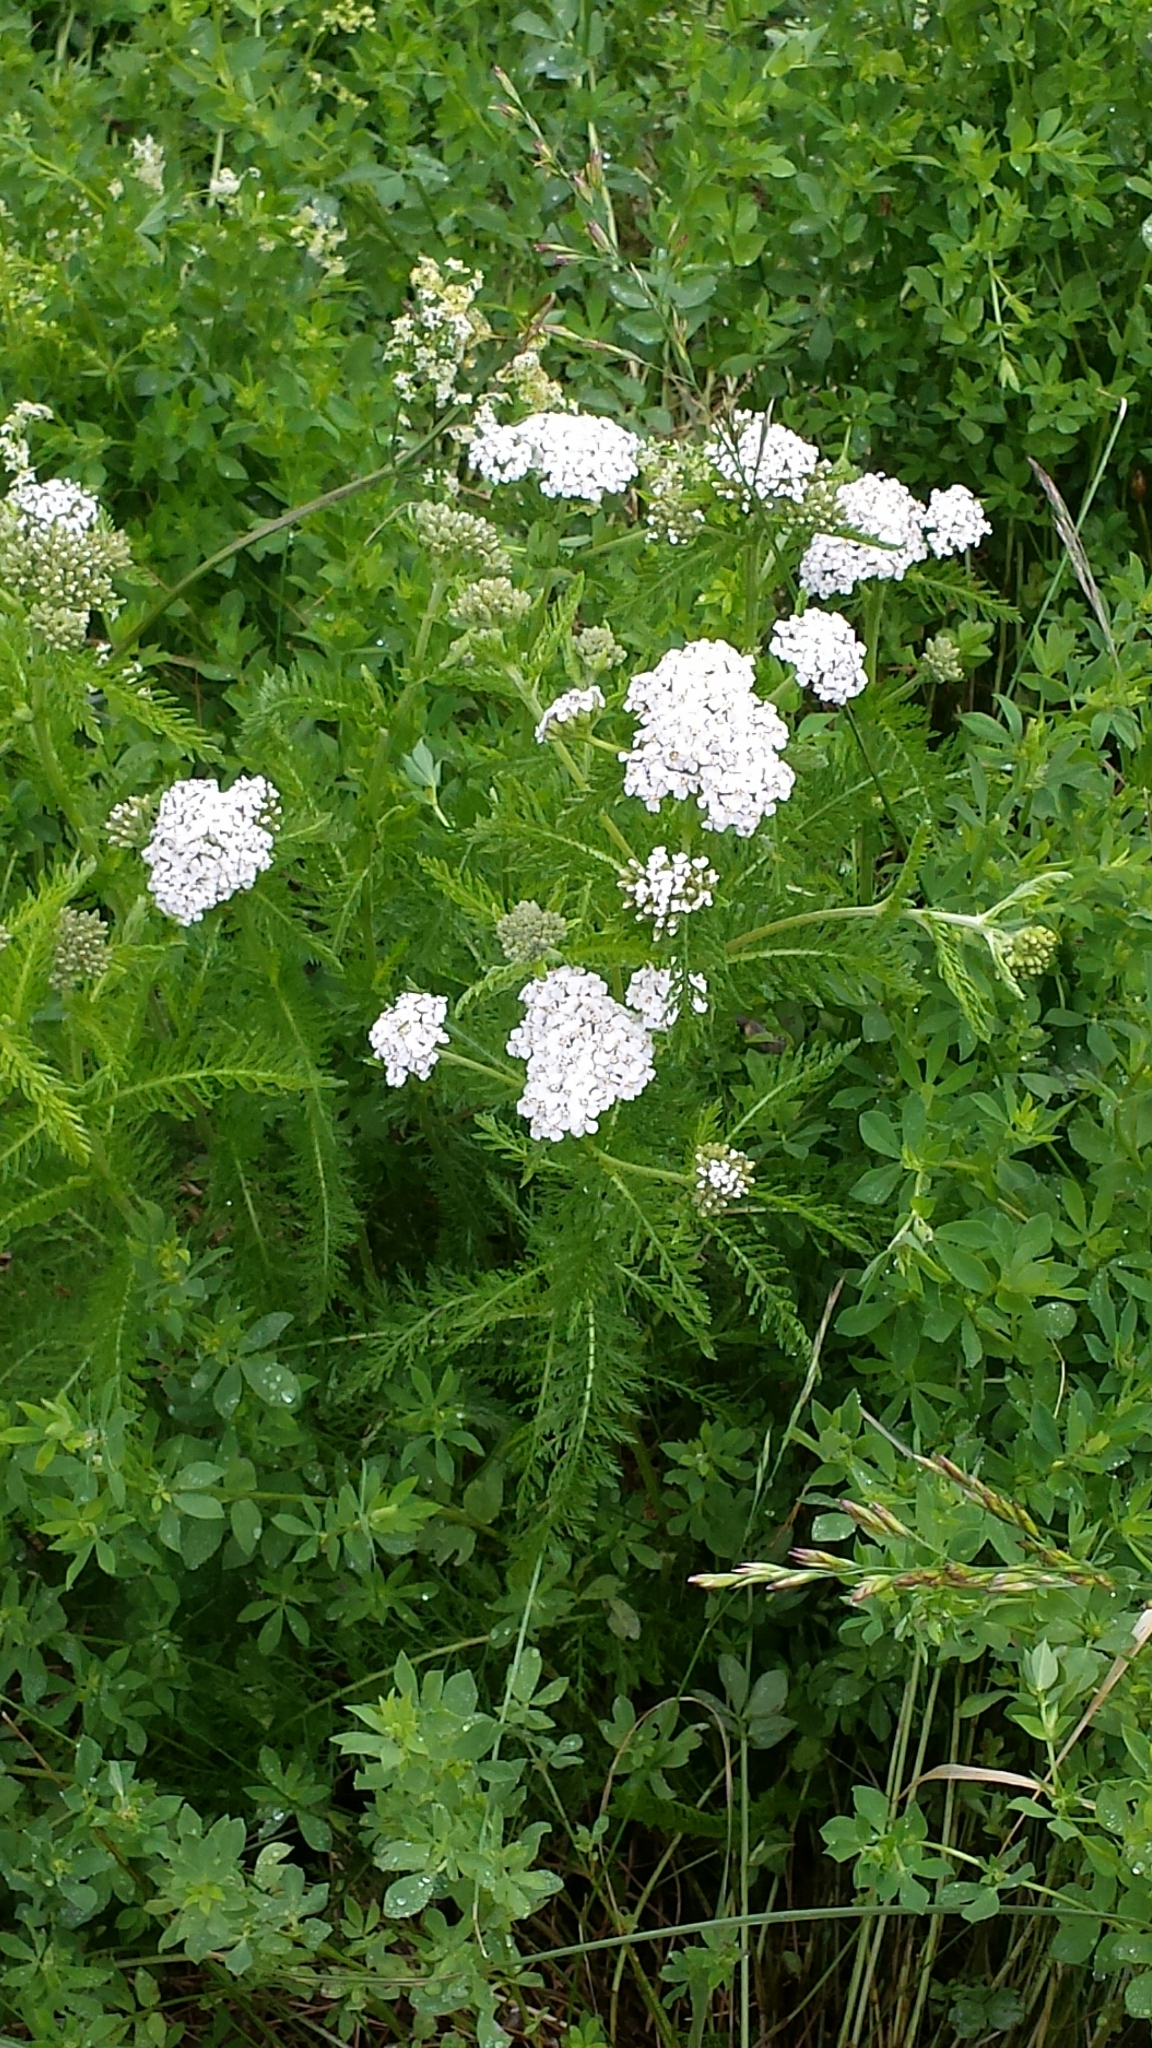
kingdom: Plantae
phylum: Tracheophyta
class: Magnoliopsida
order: Asterales
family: Asteraceae
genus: Achillea
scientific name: Achillea millefolium
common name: Yarrow
